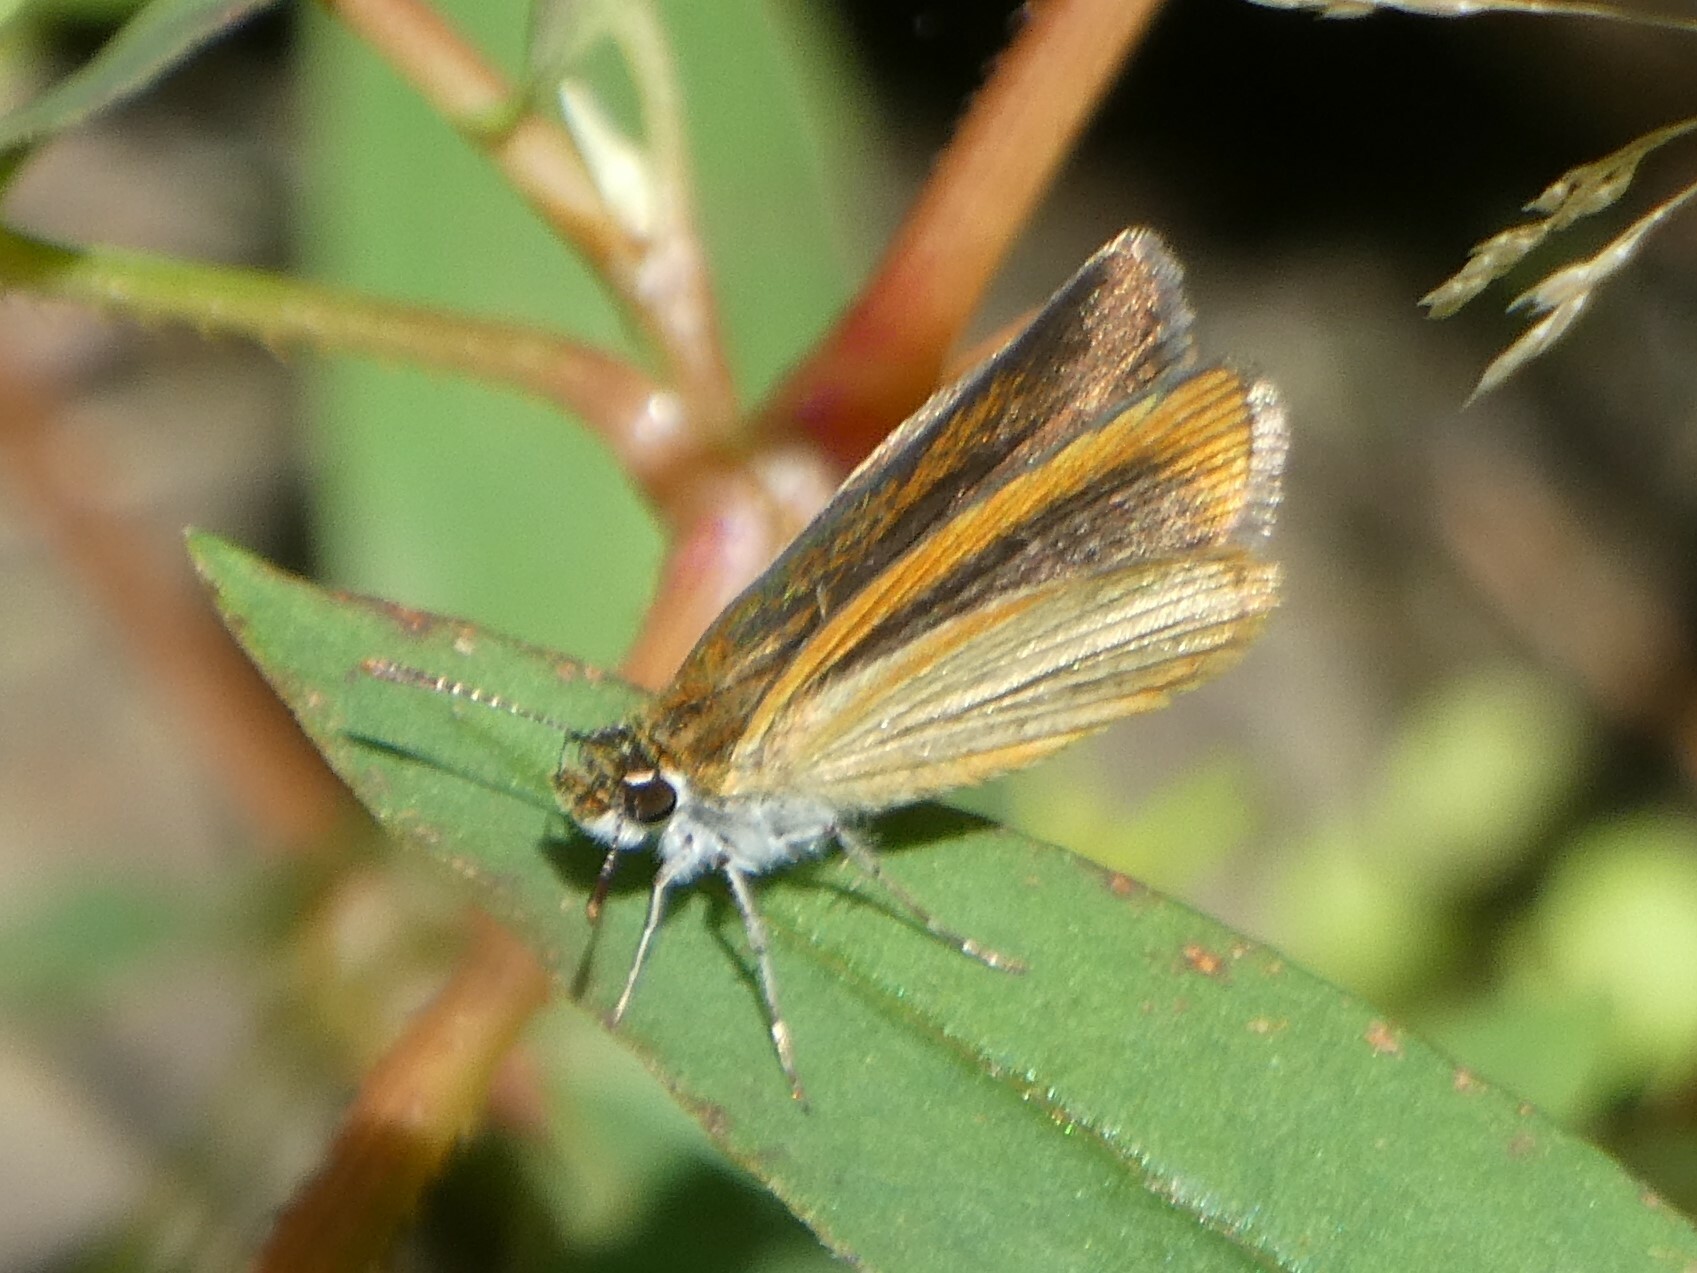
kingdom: Animalia
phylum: Arthropoda
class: Insecta
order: Lepidoptera
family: Hesperiidae
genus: Ancyloxypha
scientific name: Ancyloxypha numitor
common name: Least skipper
